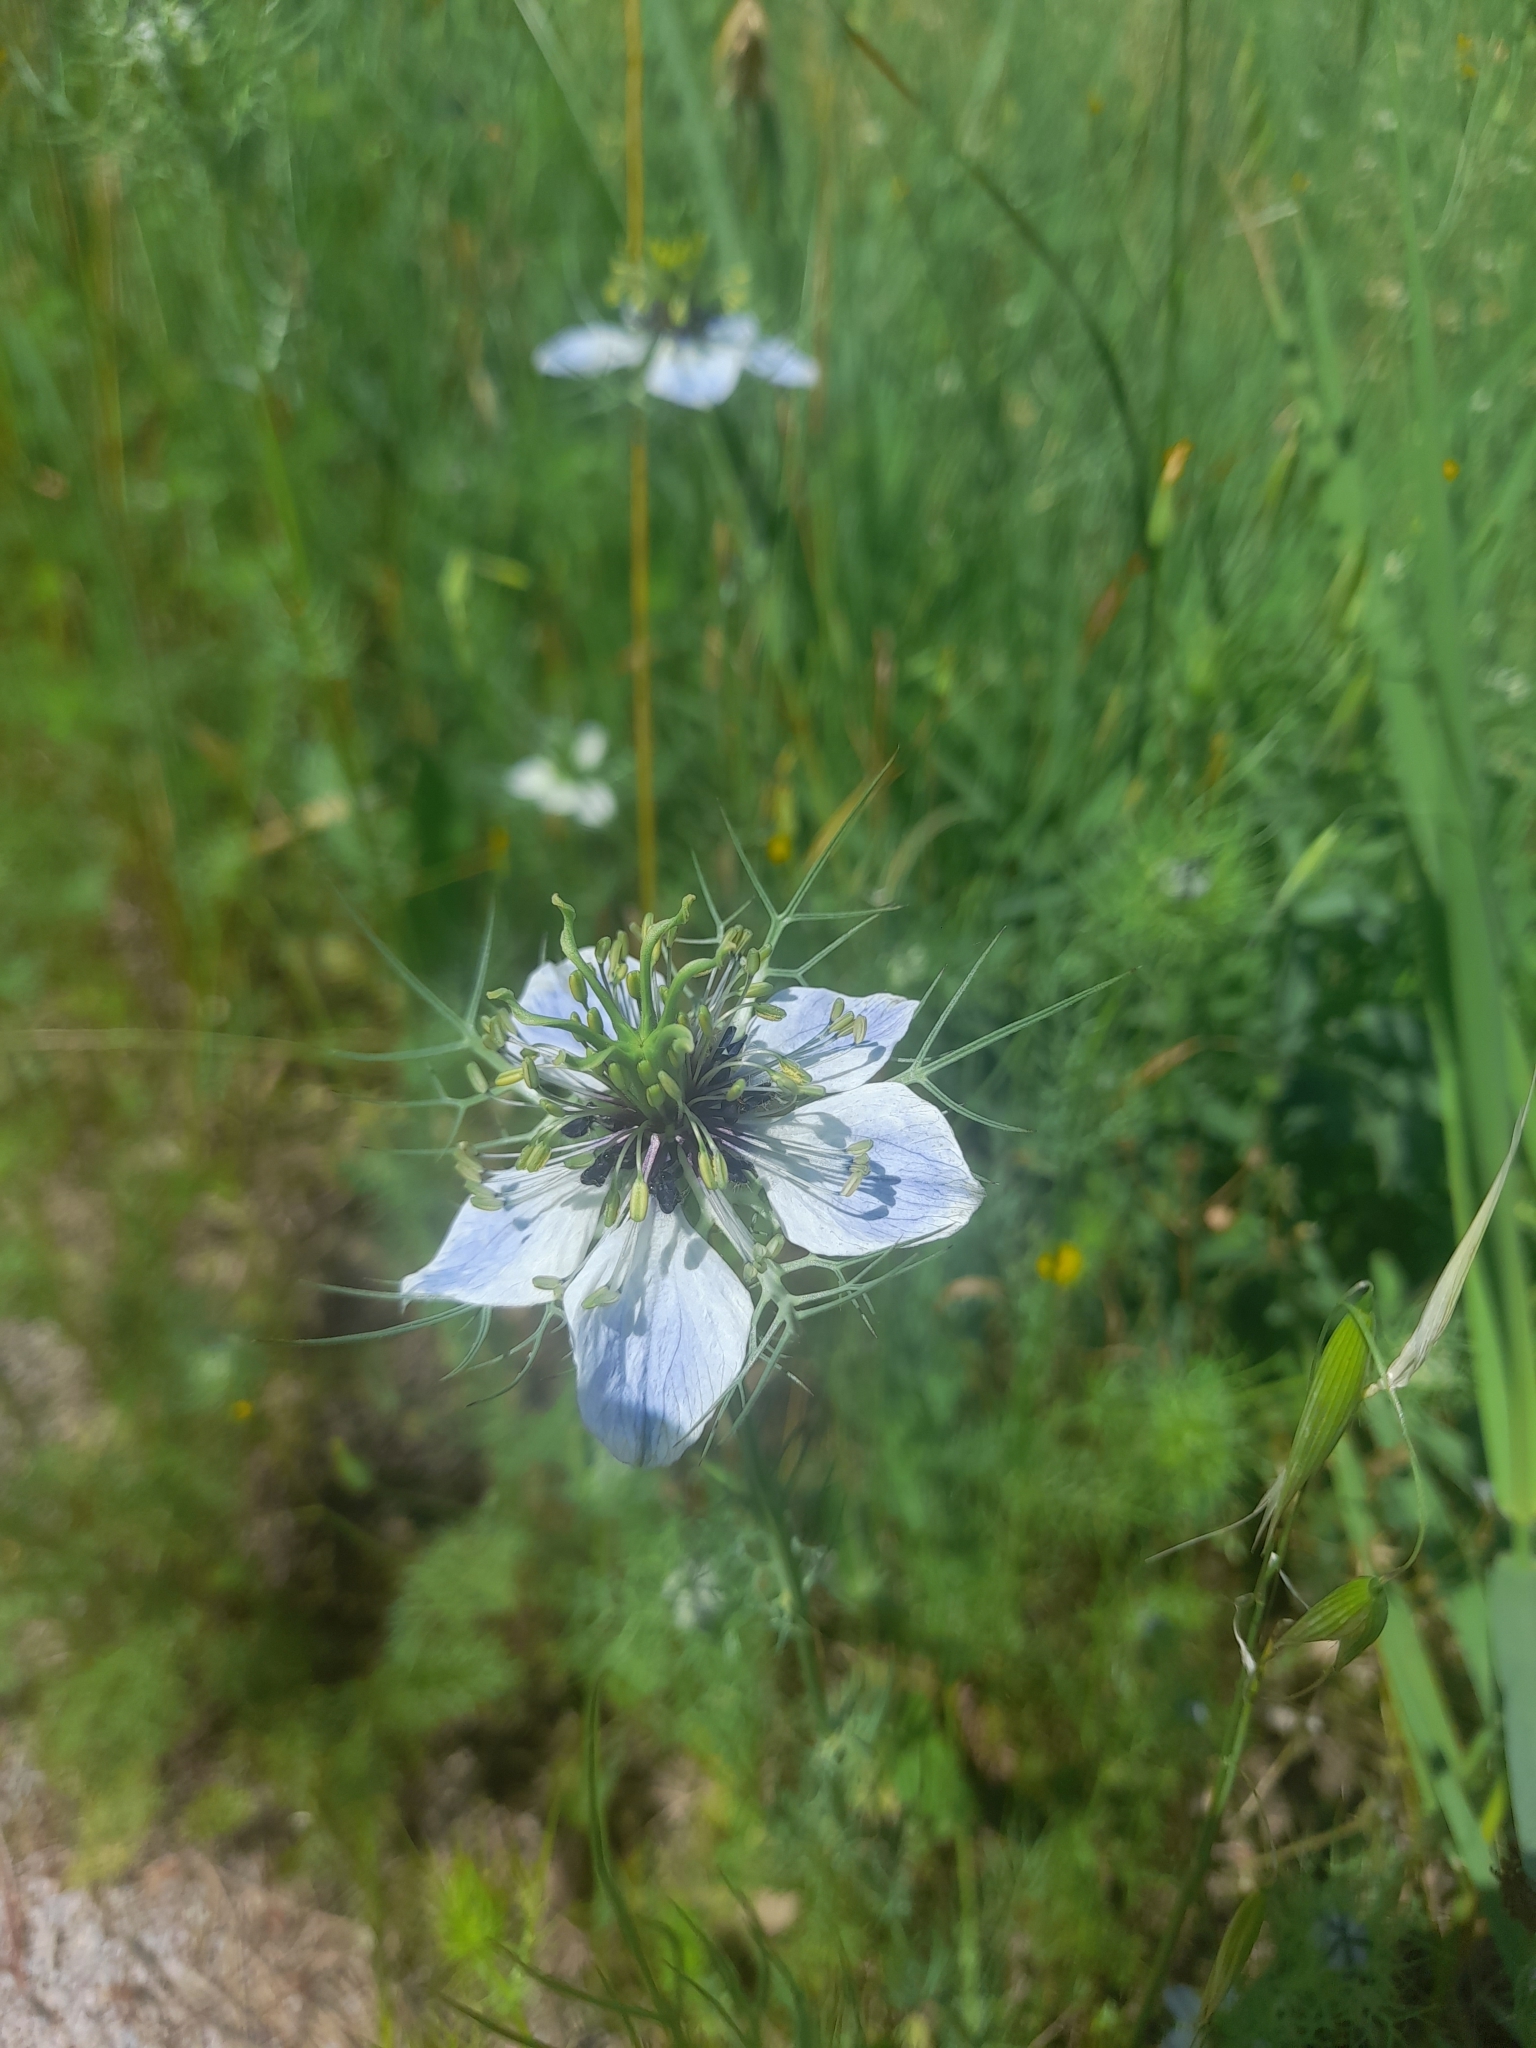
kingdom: Plantae
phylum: Tracheophyta
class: Magnoliopsida
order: Ranunculales
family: Ranunculaceae
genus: Nigella
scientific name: Nigella damascena
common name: Love-in-a-mist
